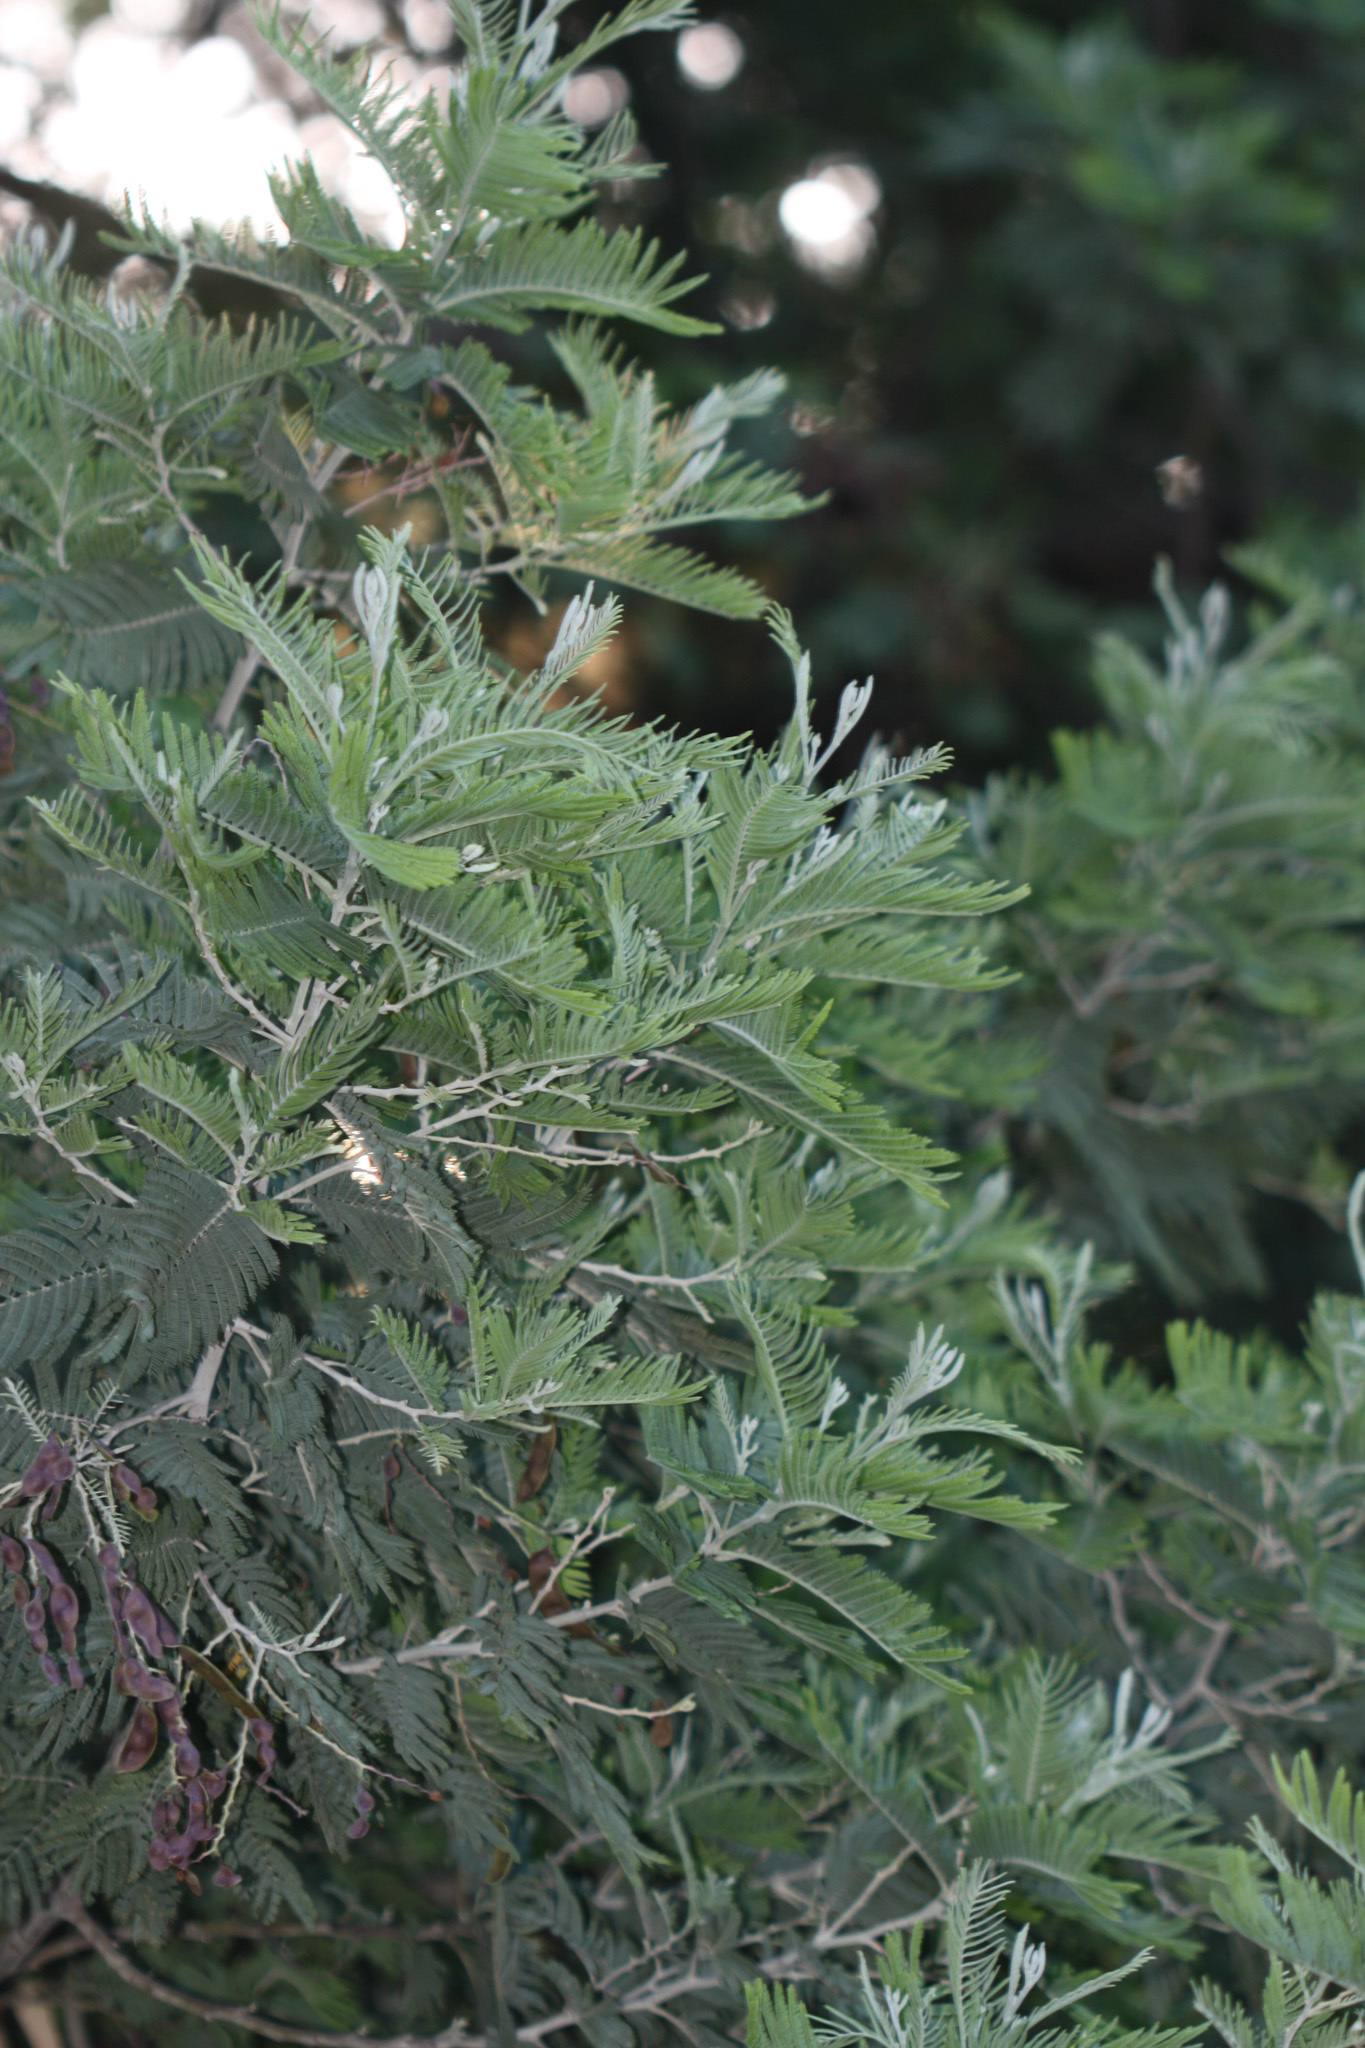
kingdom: Plantae
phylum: Tracheophyta
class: Magnoliopsida
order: Fabales
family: Fabaceae
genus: Acacia
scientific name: Acacia dealbata
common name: Silver wattle
